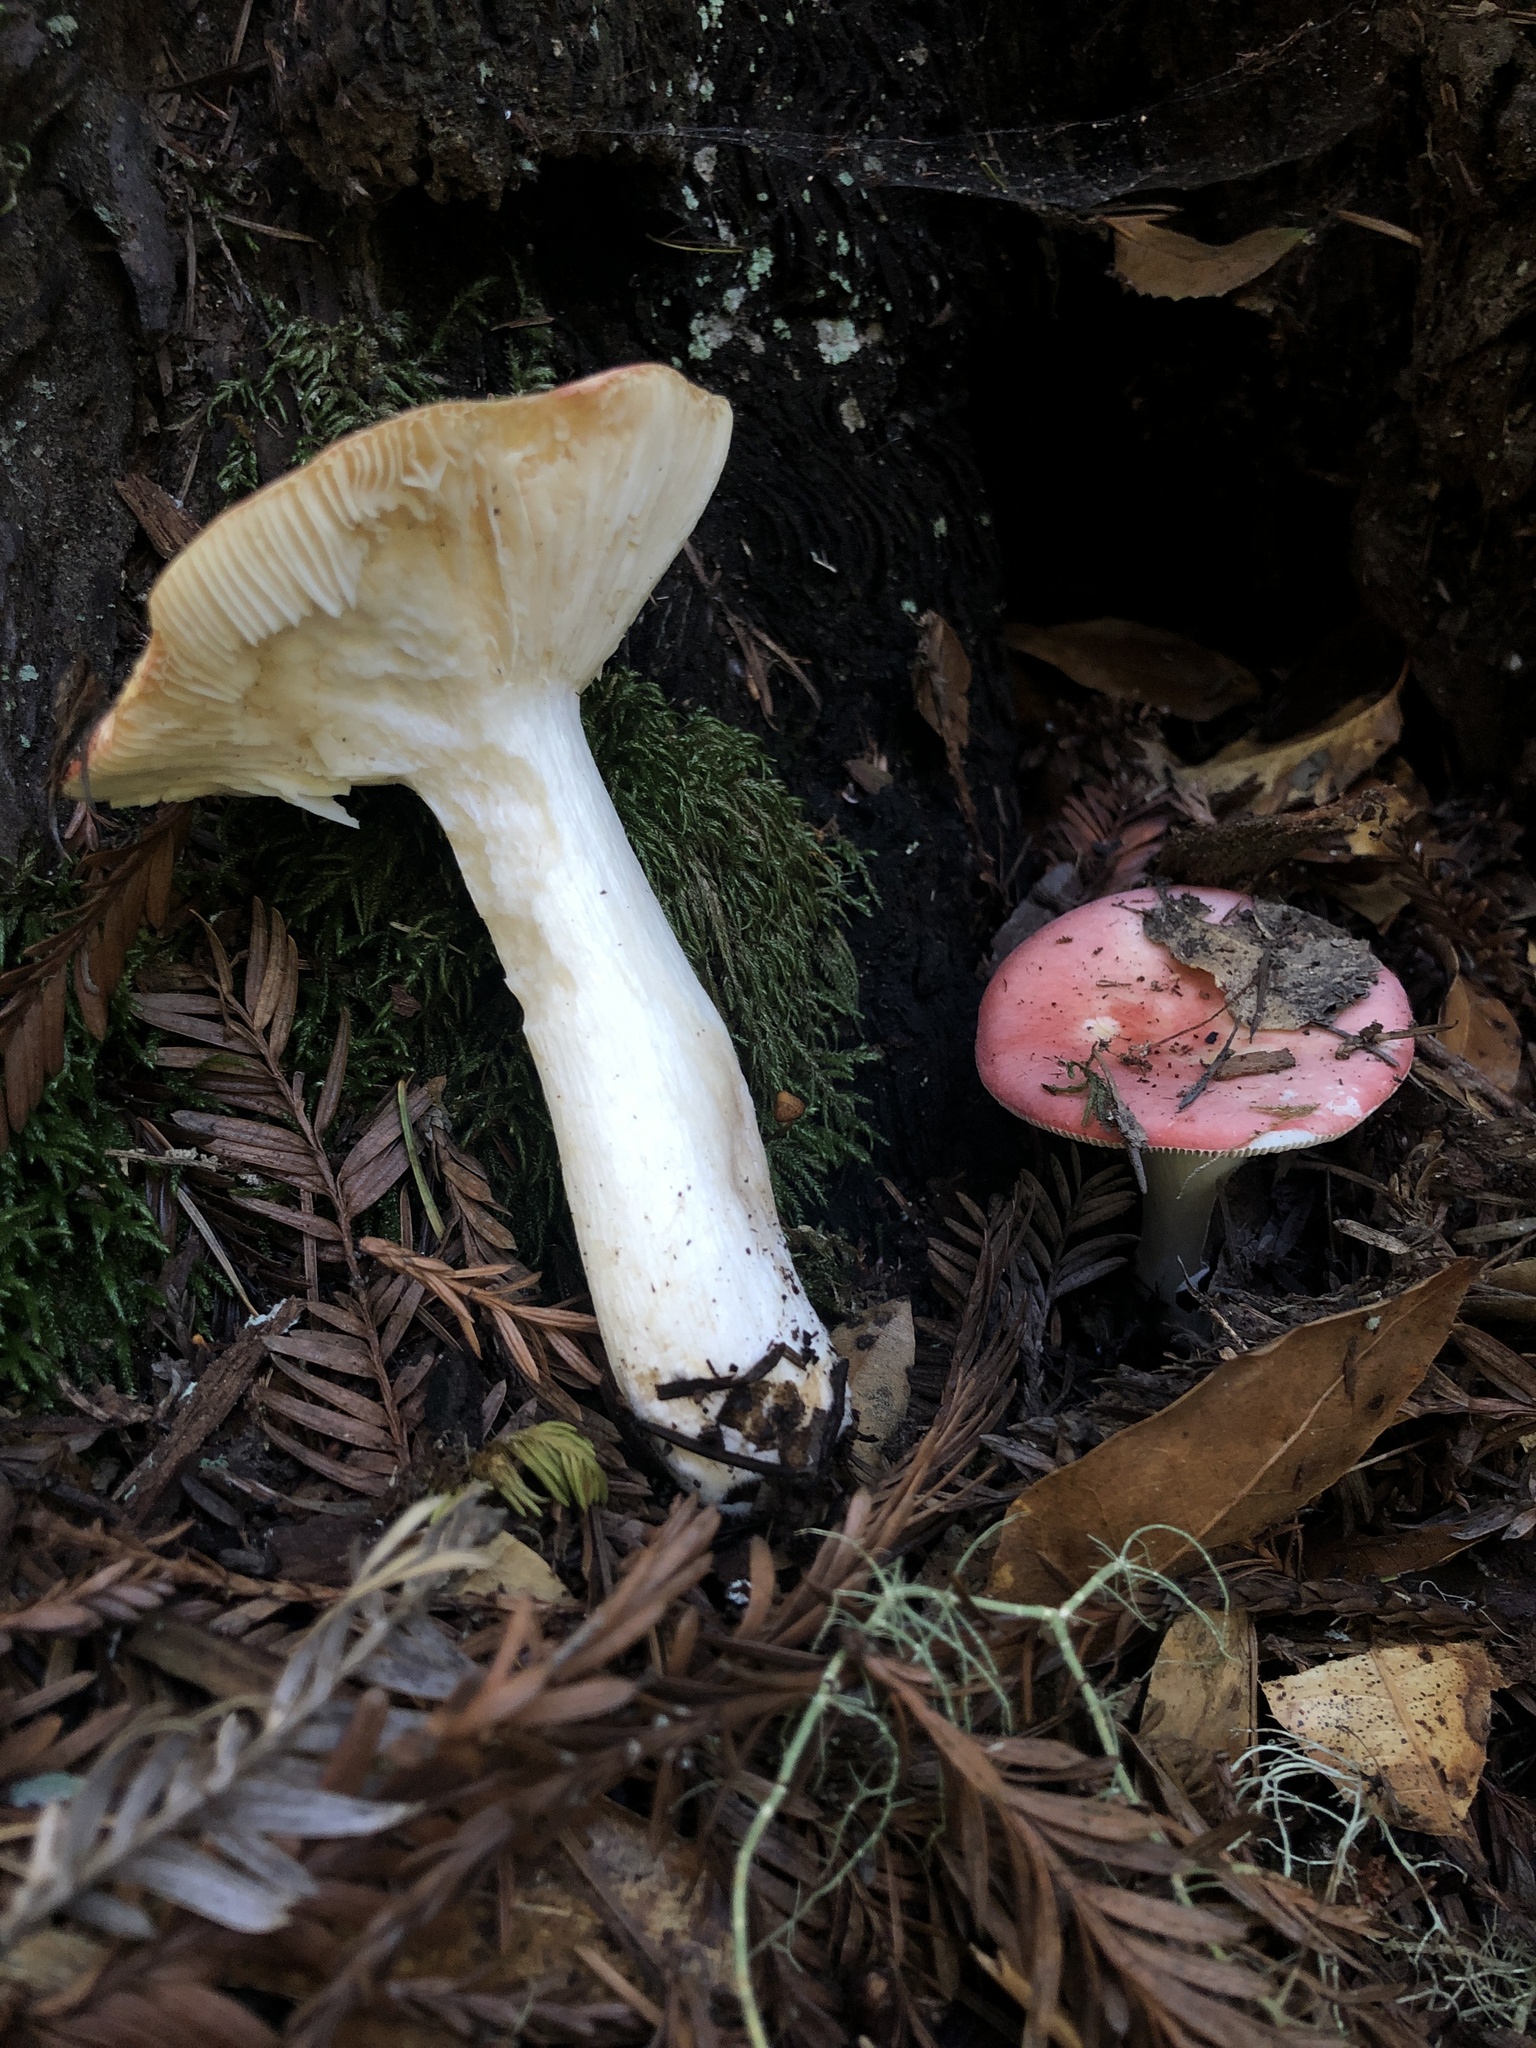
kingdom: Fungi
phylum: Basidiomycota
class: Agaricomycetes
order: Russulales
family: Russulaceae
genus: Russula
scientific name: Russula cremoricolor
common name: Winter russula
